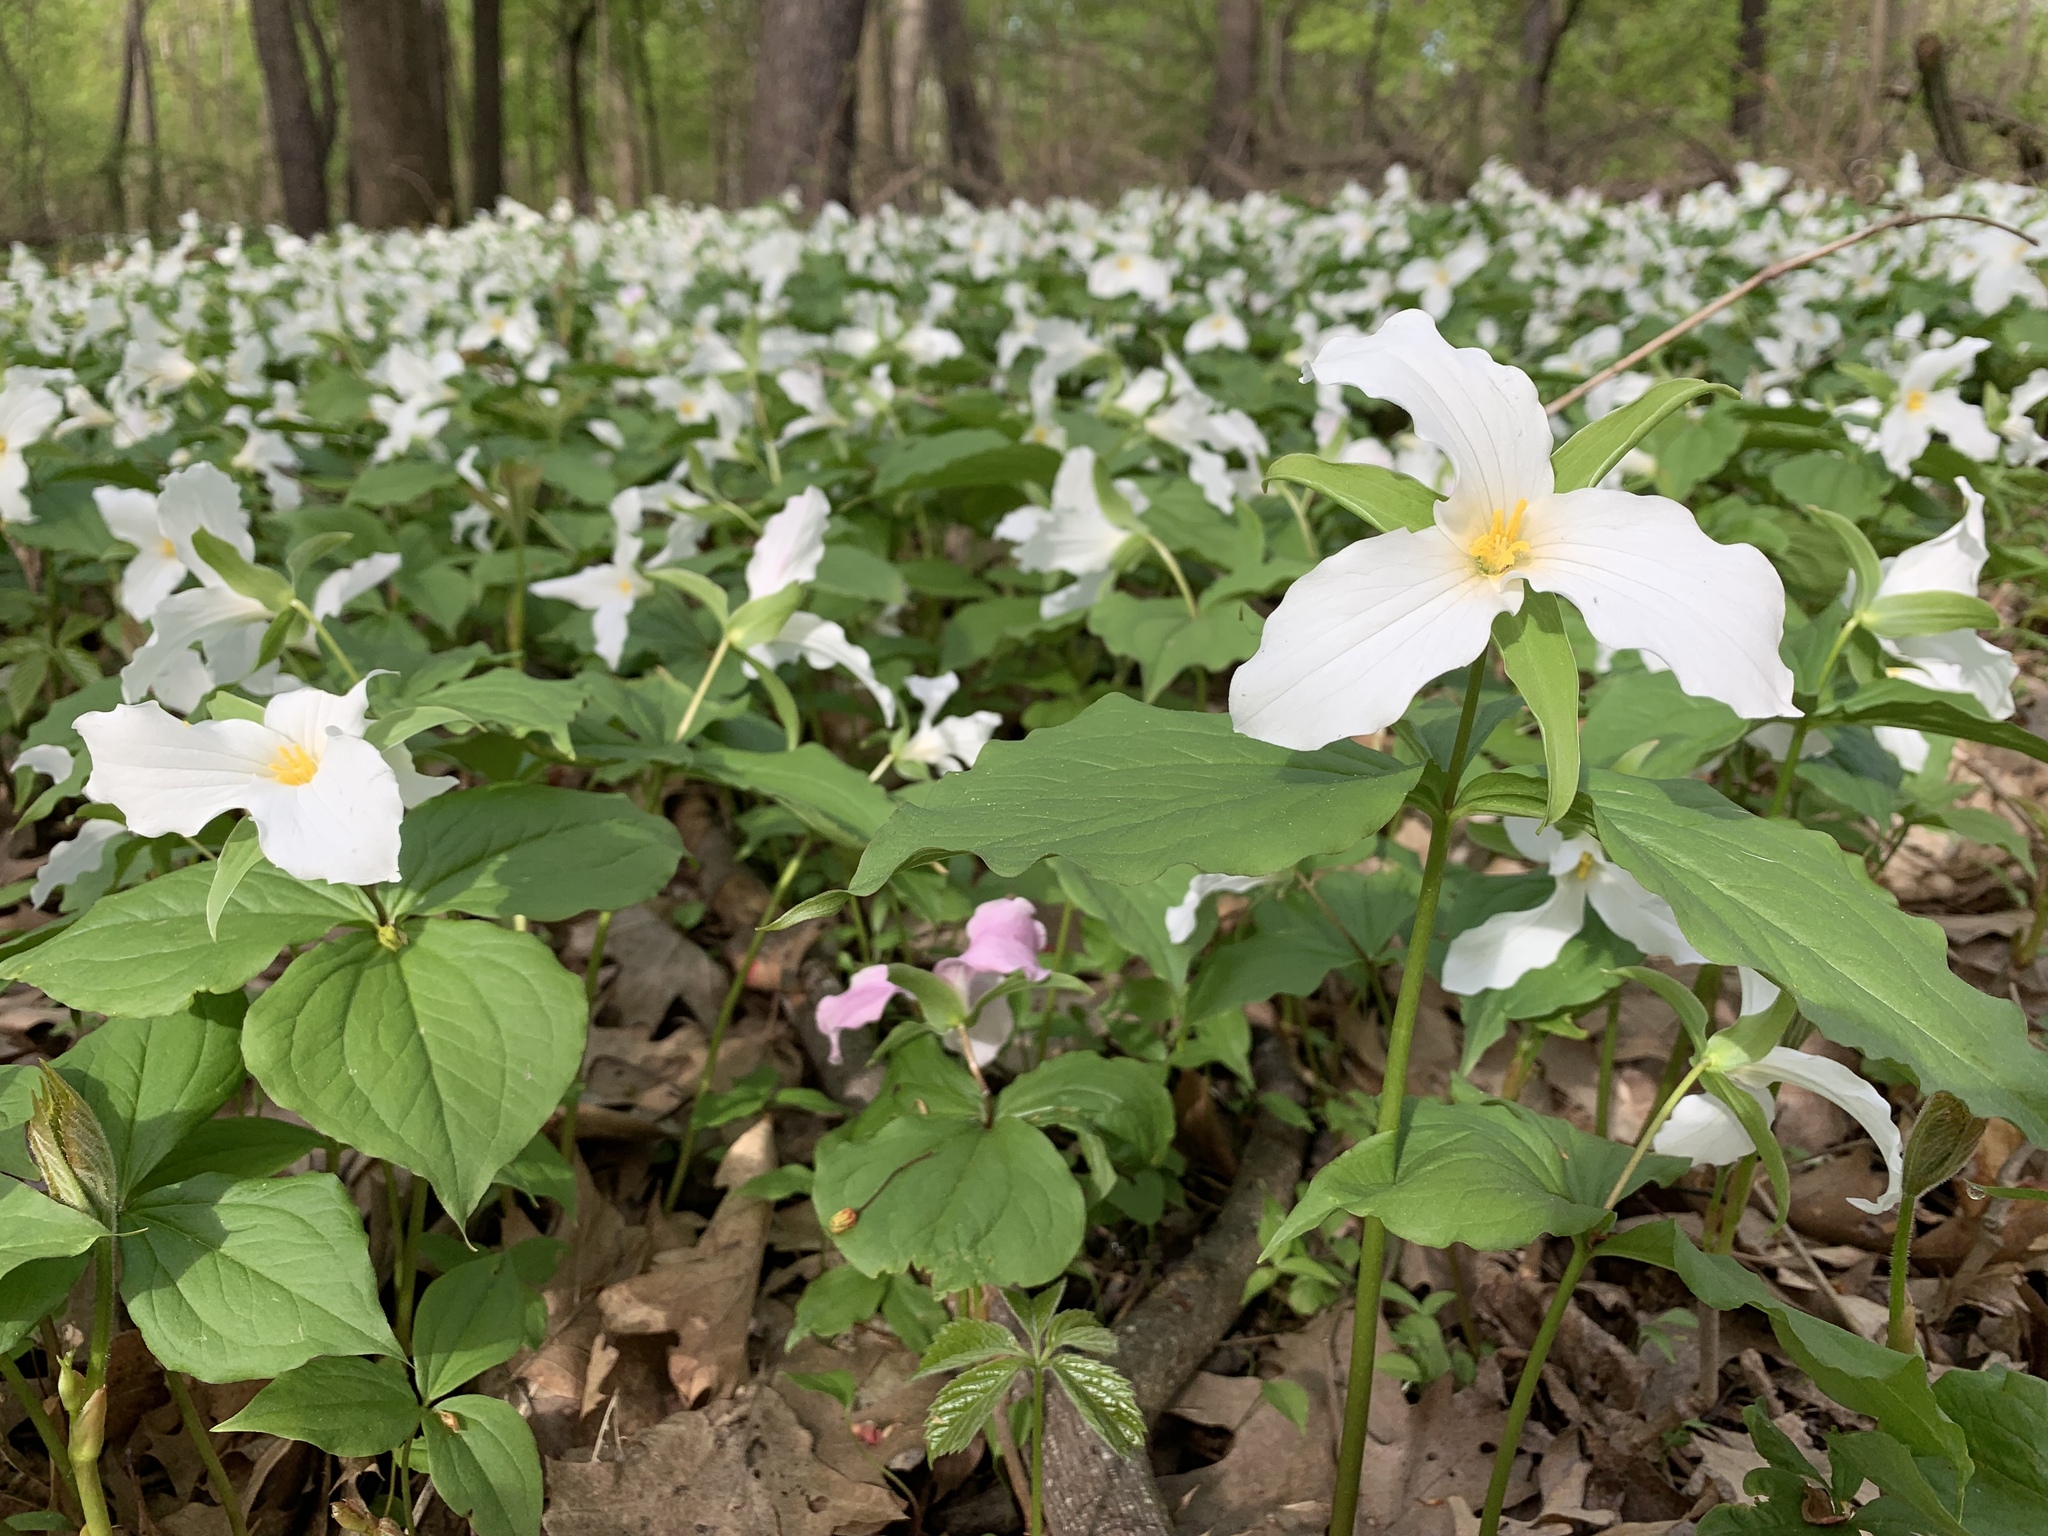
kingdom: Plantae
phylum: Tracheophyta
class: Liliopsida
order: Liliales
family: Melanthiaceae
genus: Trillium
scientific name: Trillium grandiflorum
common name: Great white trillium
